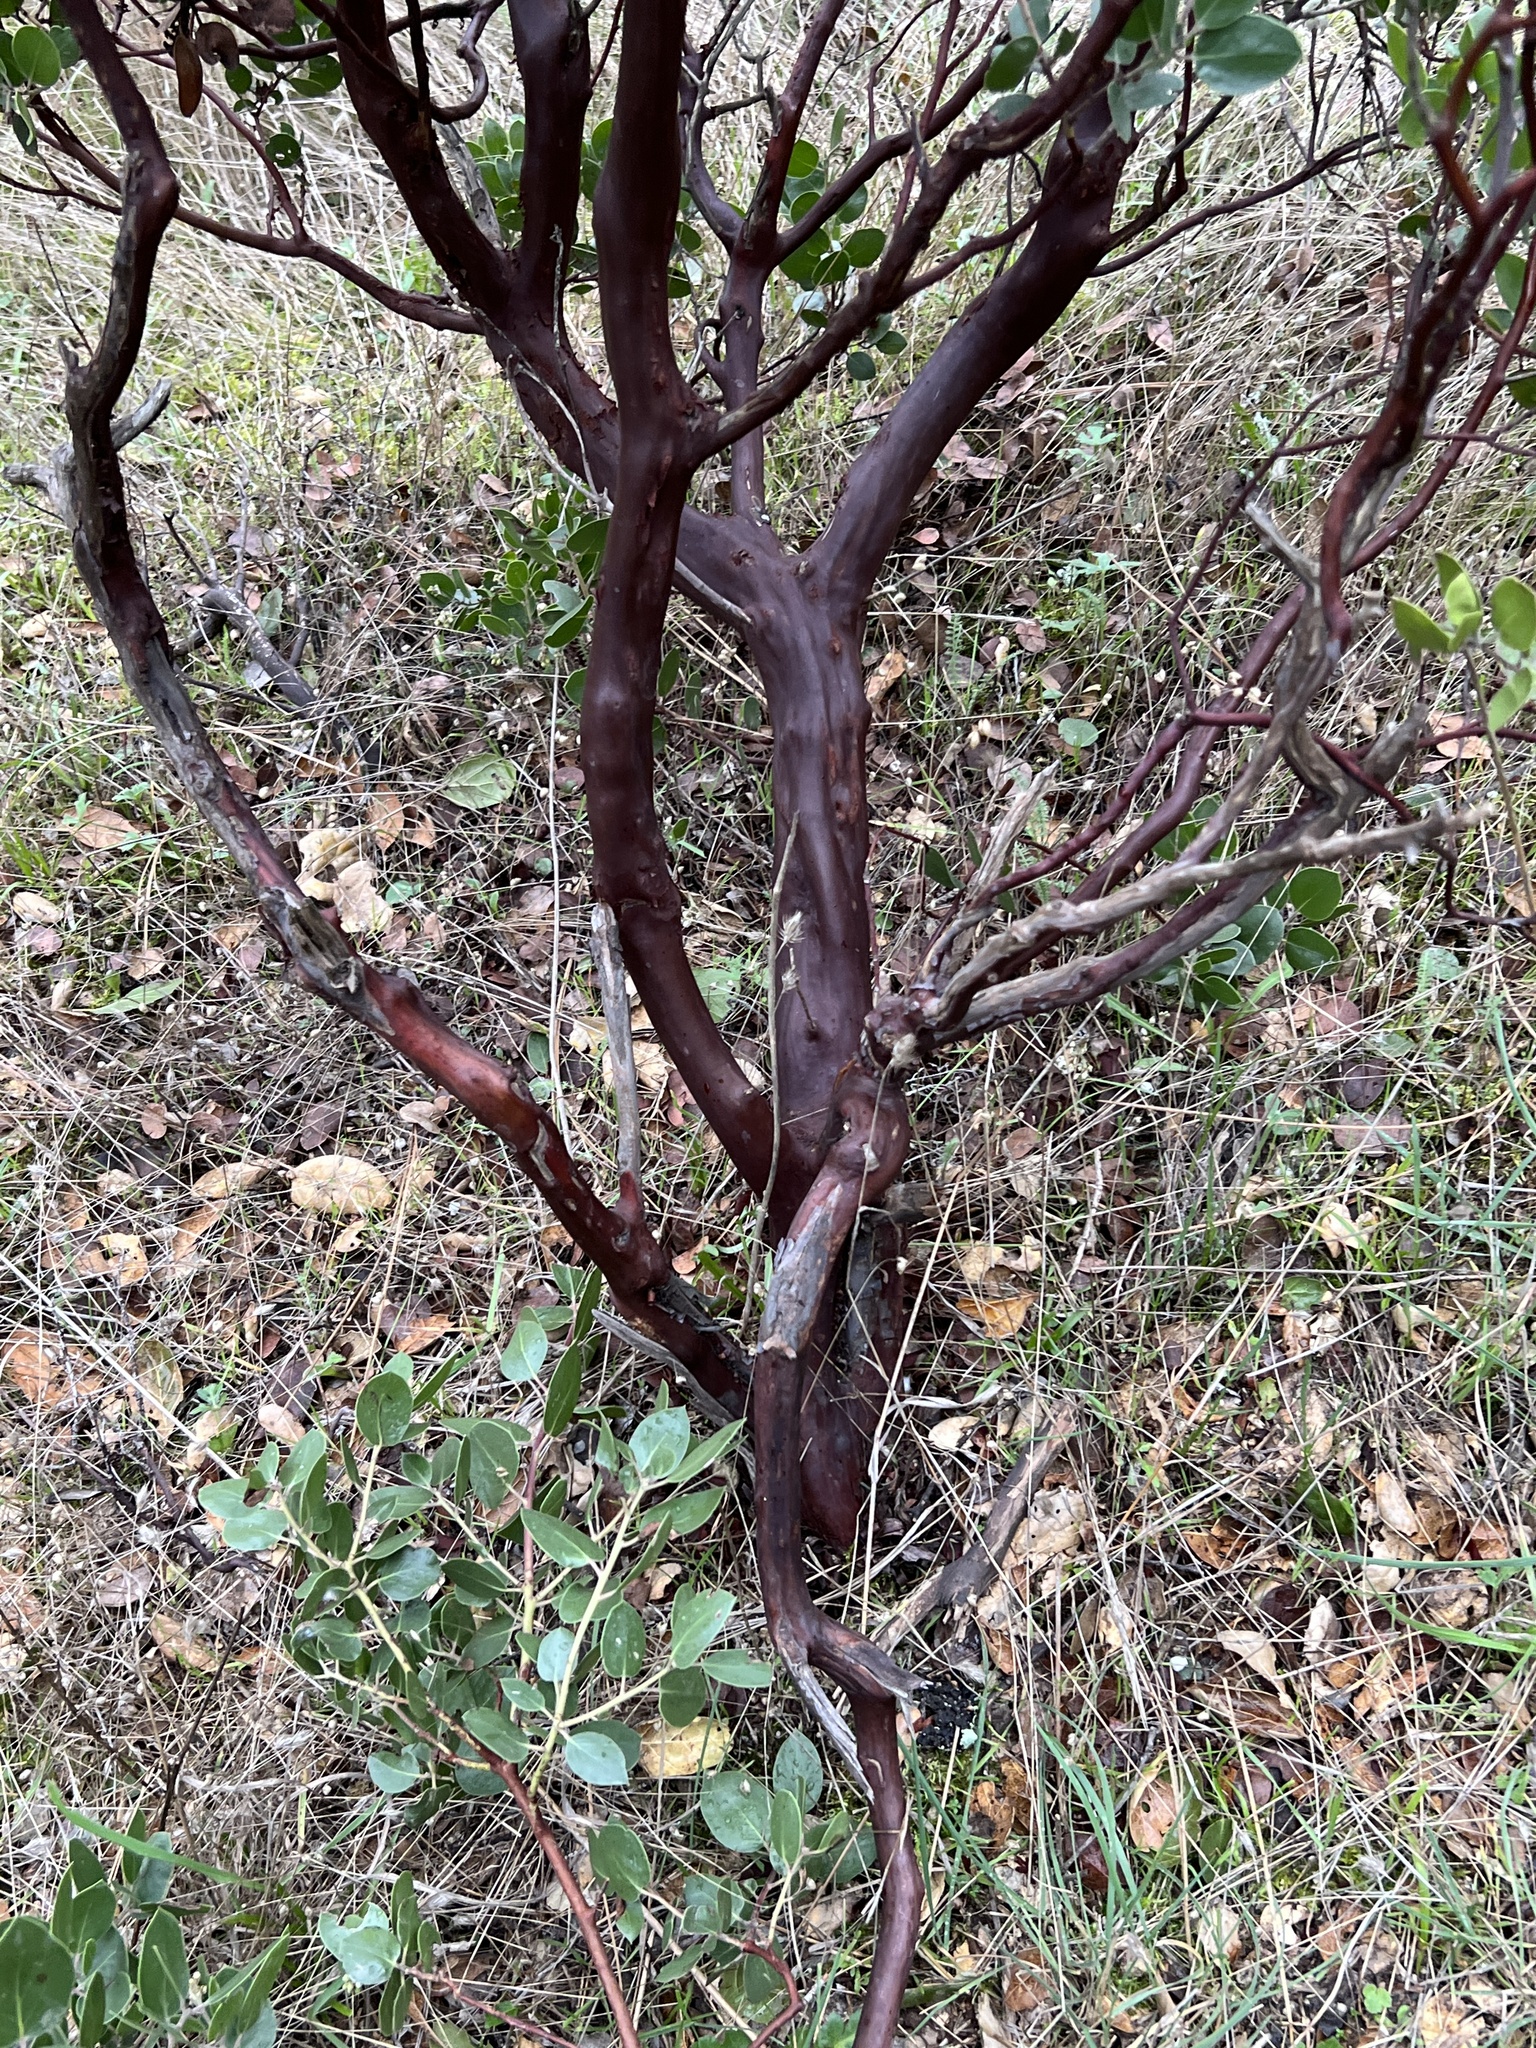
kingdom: Plantae
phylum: Tracheophyta
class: Magnoliopsida
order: Ericales
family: Ericaceae
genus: Arctostaphylos
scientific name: Arctostaphylos manzanita
